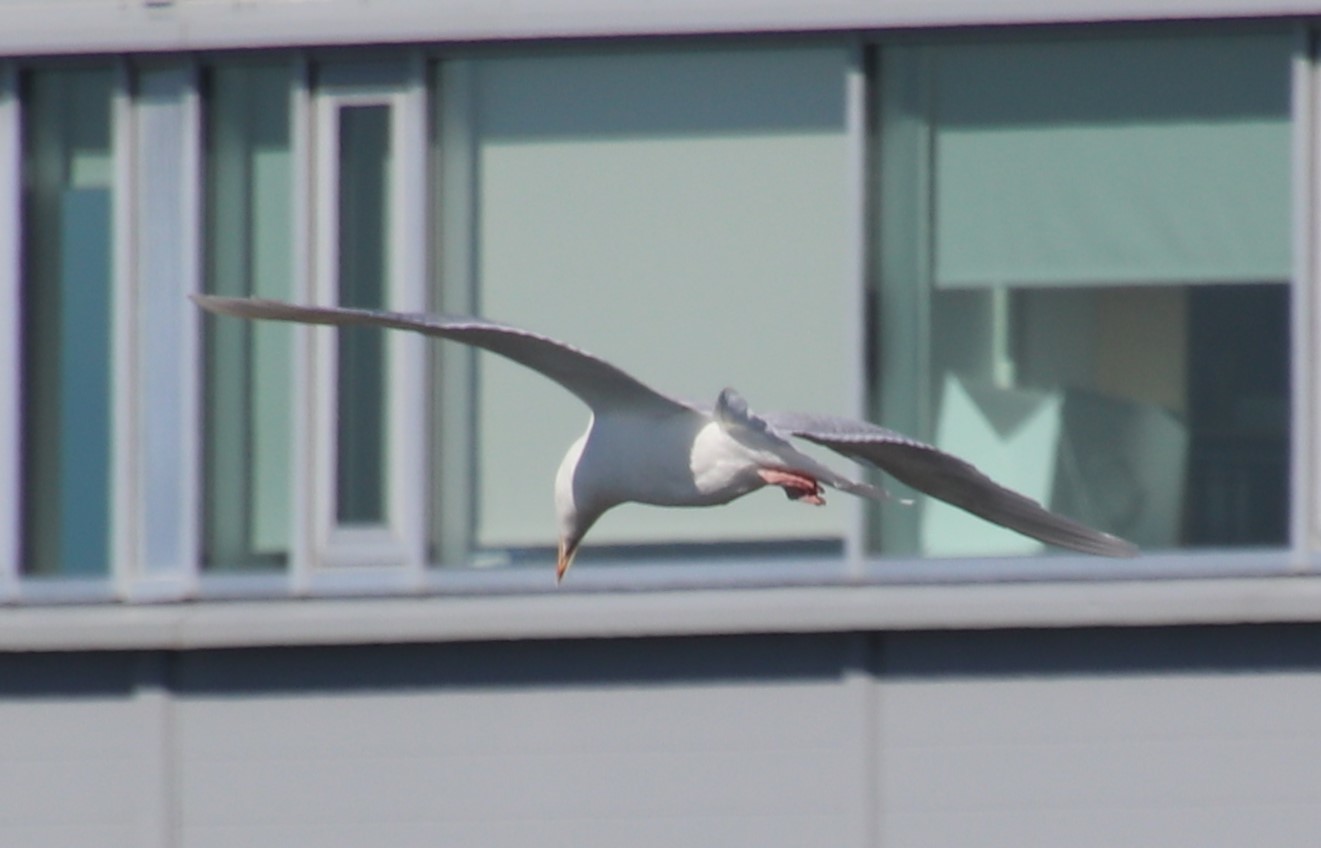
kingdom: Animalia
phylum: Chordata
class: Aves
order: Charadriiformes
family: Laridae
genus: Larus
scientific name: Larus hyperboreus
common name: Glaucous gull
